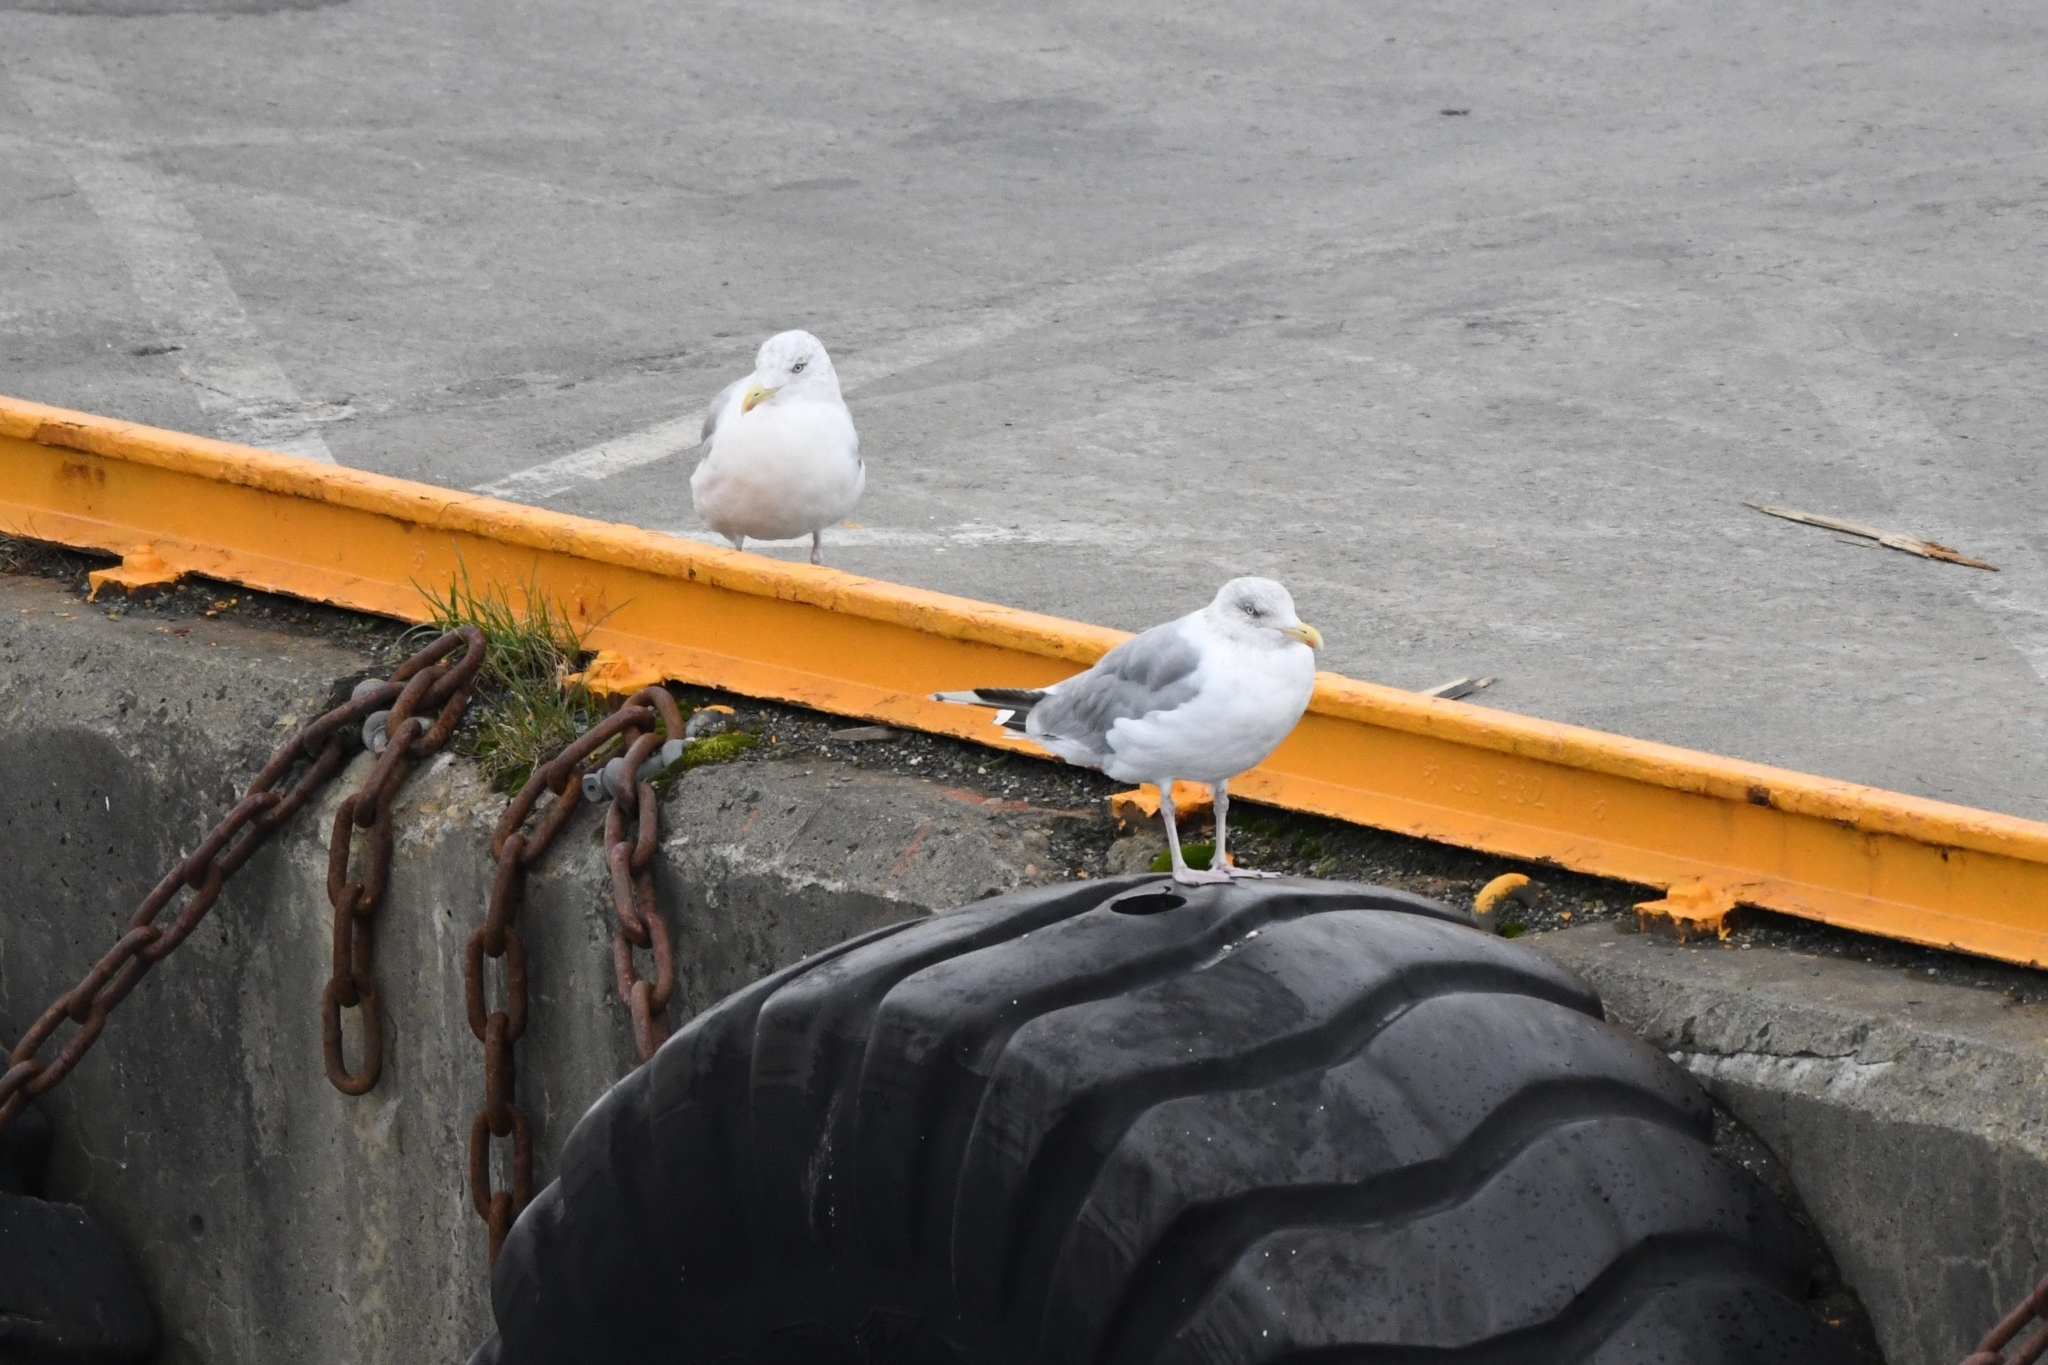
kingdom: Animalia
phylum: Chordata
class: Aves
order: Charadriiformes
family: Laridae
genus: Larus
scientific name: Larus argentatus
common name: Herring gull
